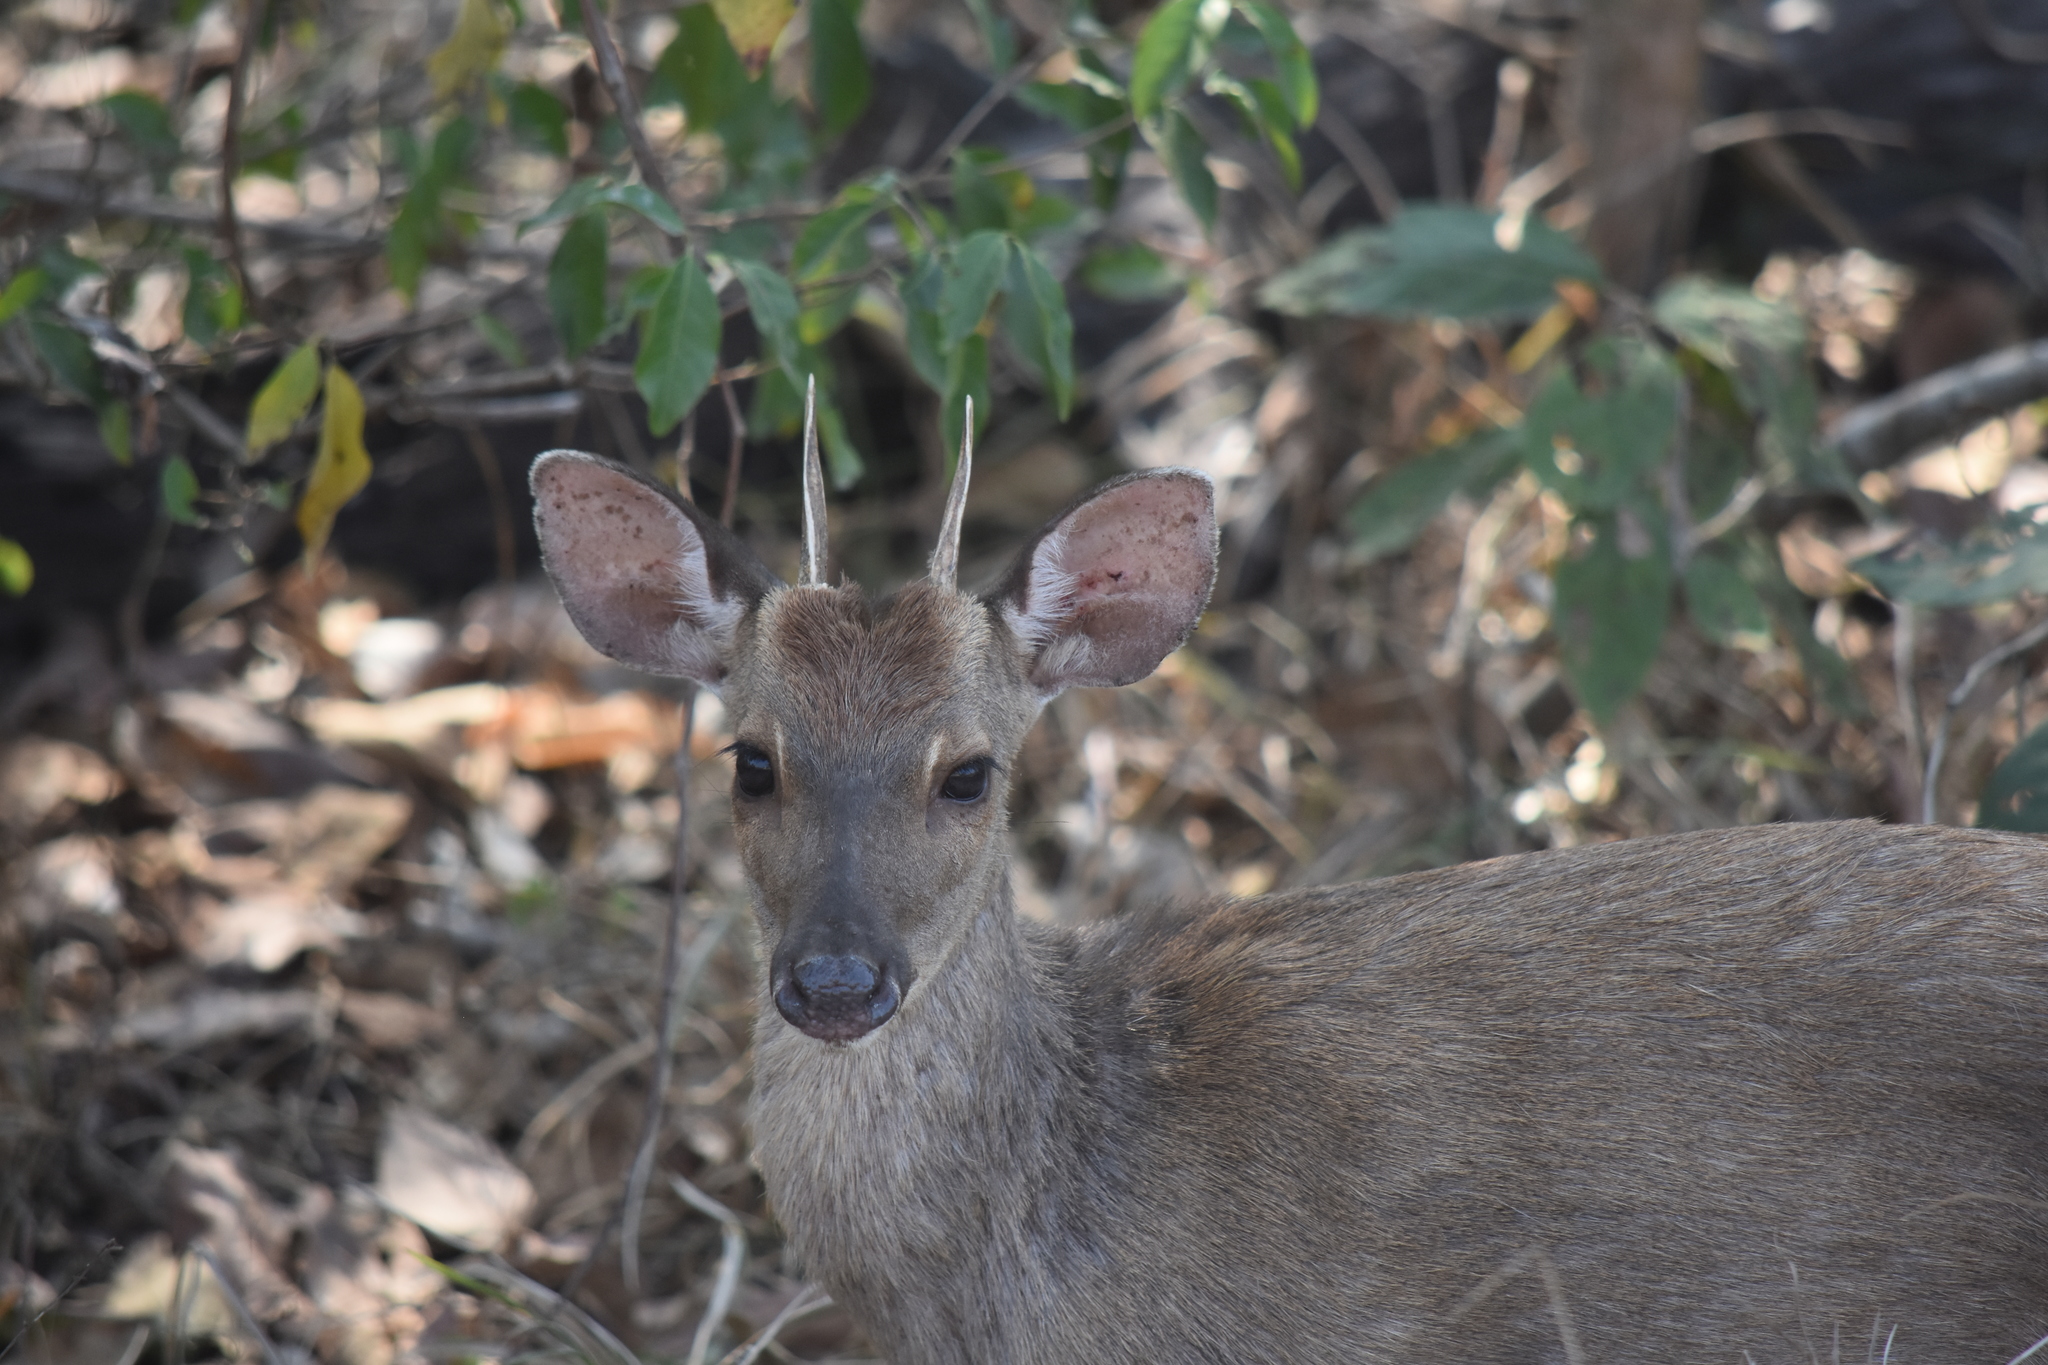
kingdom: Animalia
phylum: Chordata
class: Mammalia
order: Artiodactyla
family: Cervidae
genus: Mazama
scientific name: Mazama gouazoubira
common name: Gray brocket
